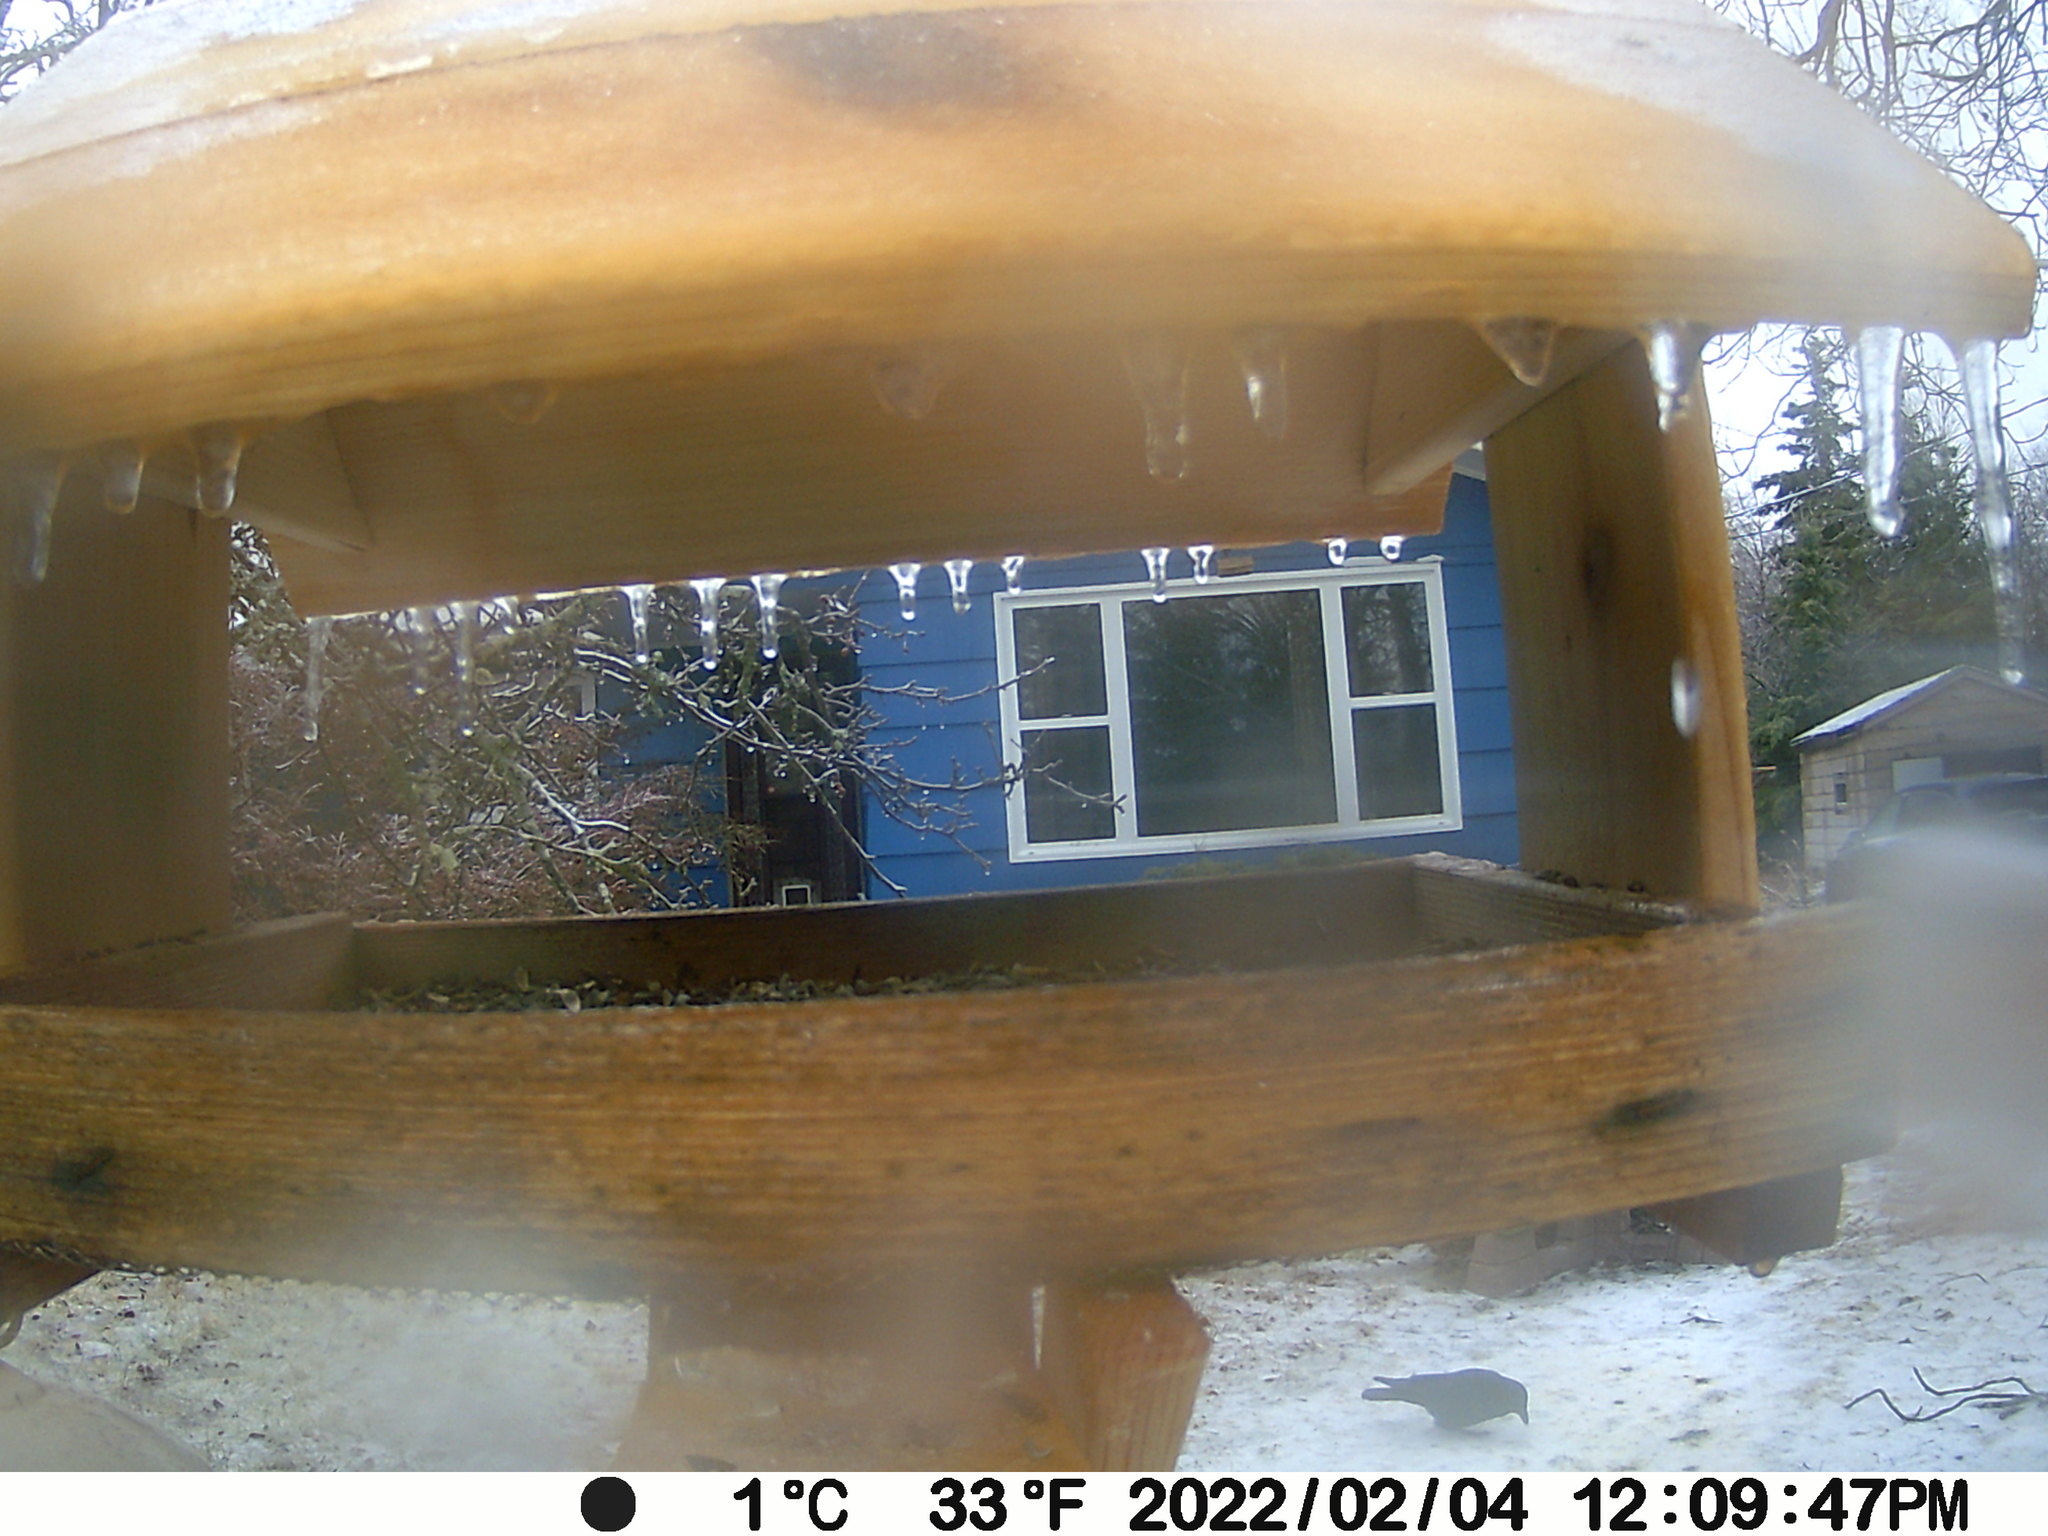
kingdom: Animalia
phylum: Chordata
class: Aves
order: Passeriformes
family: Corvidae
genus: Corvus
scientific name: Corvus brachyrhynchos
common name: American crow
